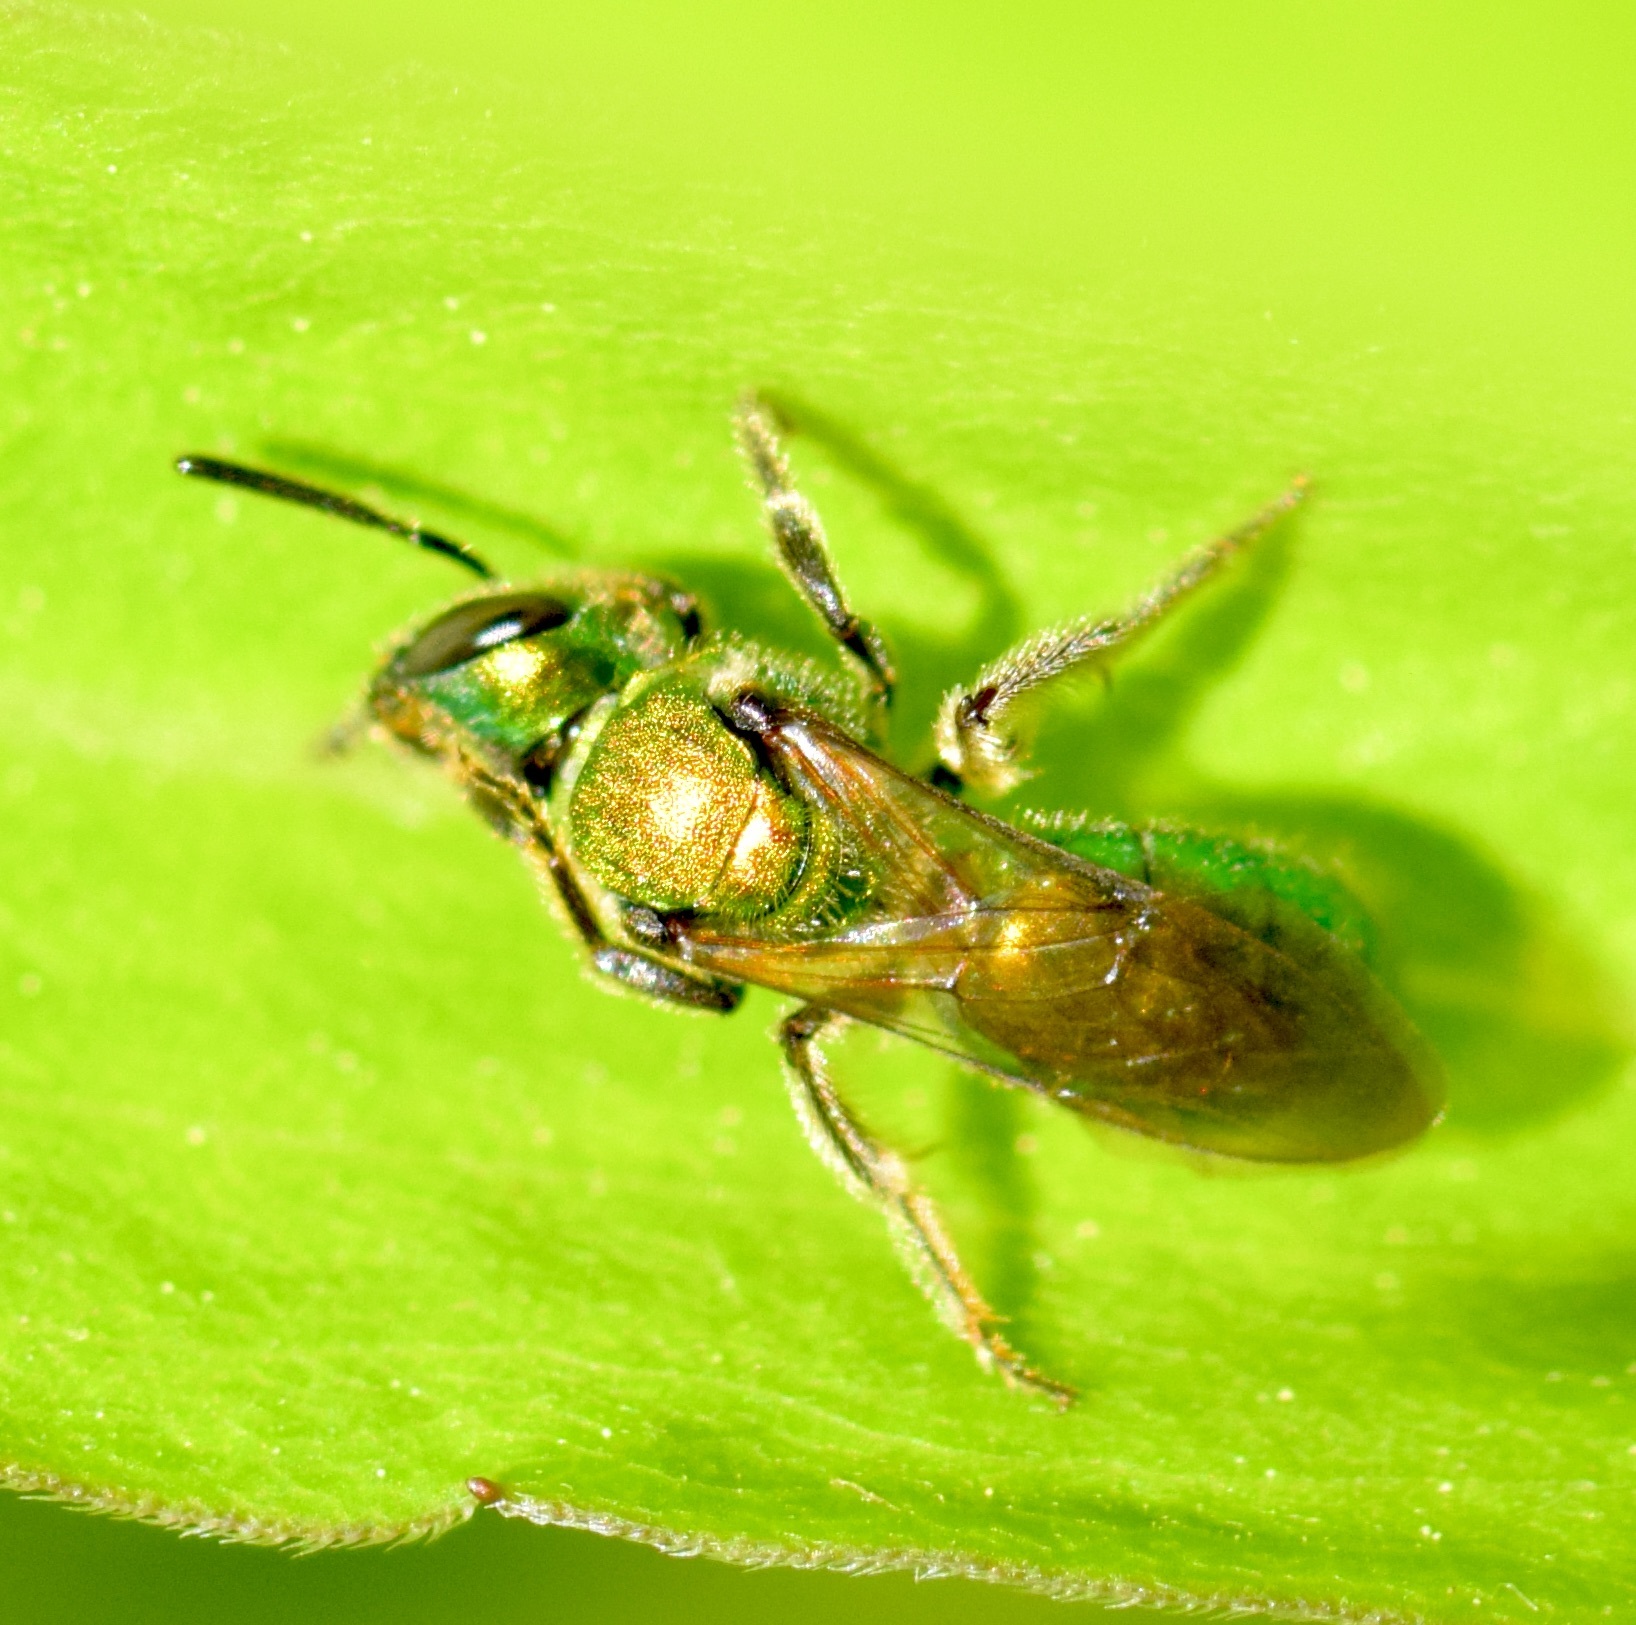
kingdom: Animalia
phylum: Arthropoda
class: Insecta
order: Hymenoptera
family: Halictidae
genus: Augochlora
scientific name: Augochlora pura
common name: Pure green sweat bee
